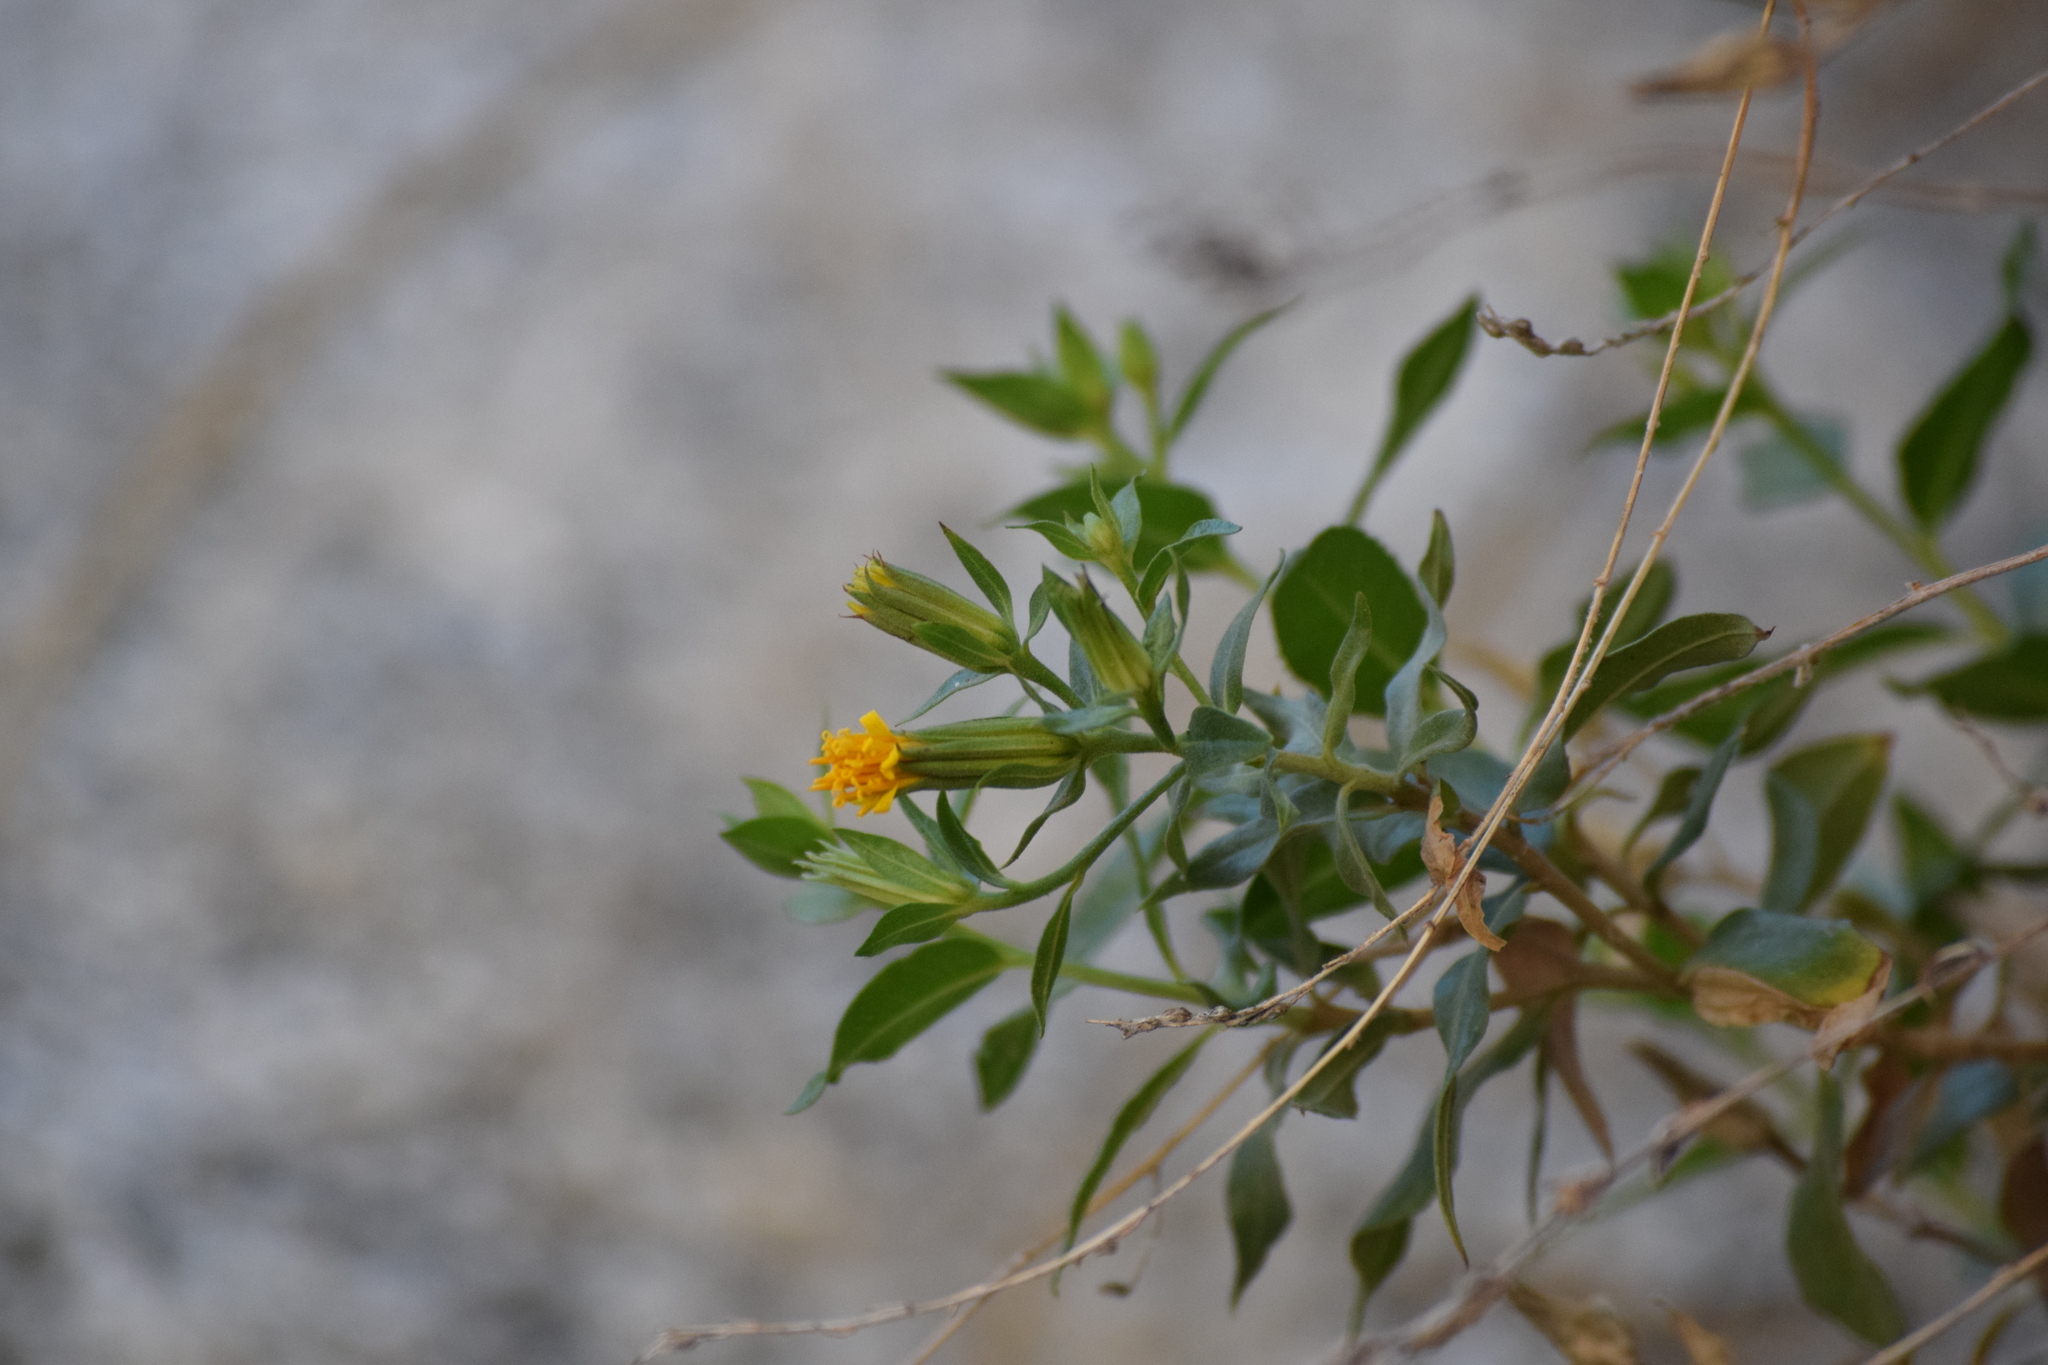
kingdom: Plantae
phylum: Tracheophyta
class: Magnoliopsida
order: Asterales
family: Asteraceae
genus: Trixis
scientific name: Trixis californica
